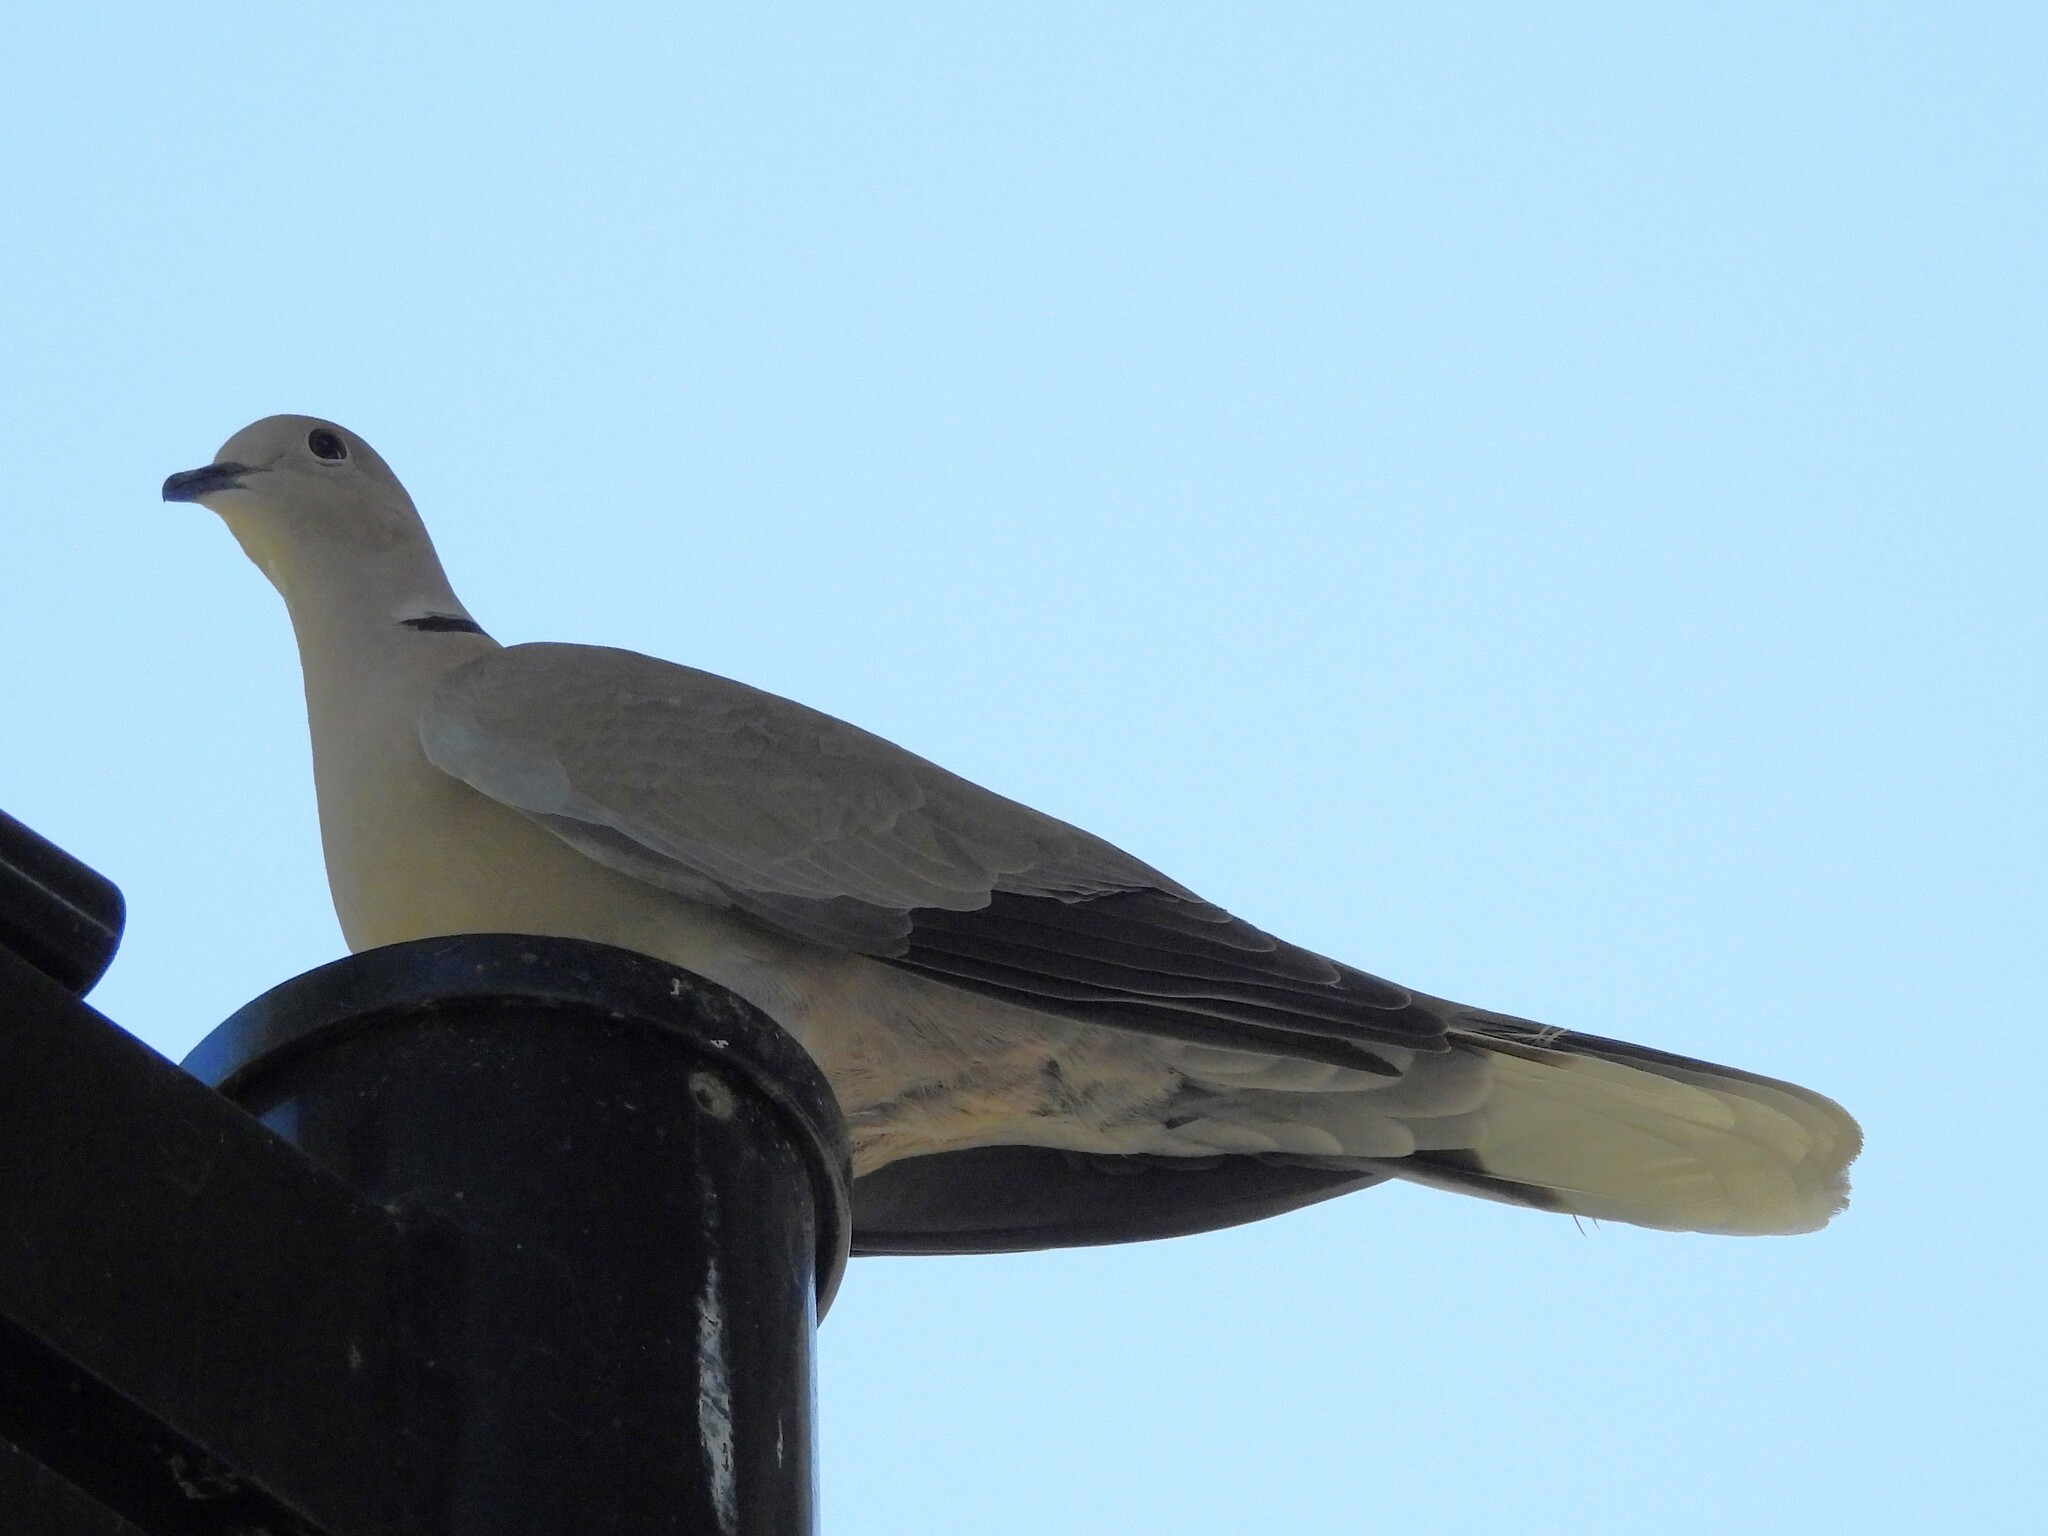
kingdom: Animalia
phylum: Chordata
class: Aves
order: Columbiformes
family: Columbidae
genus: Streptopelia
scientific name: Streptopelia decaocto
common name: Eurasian collared dove
